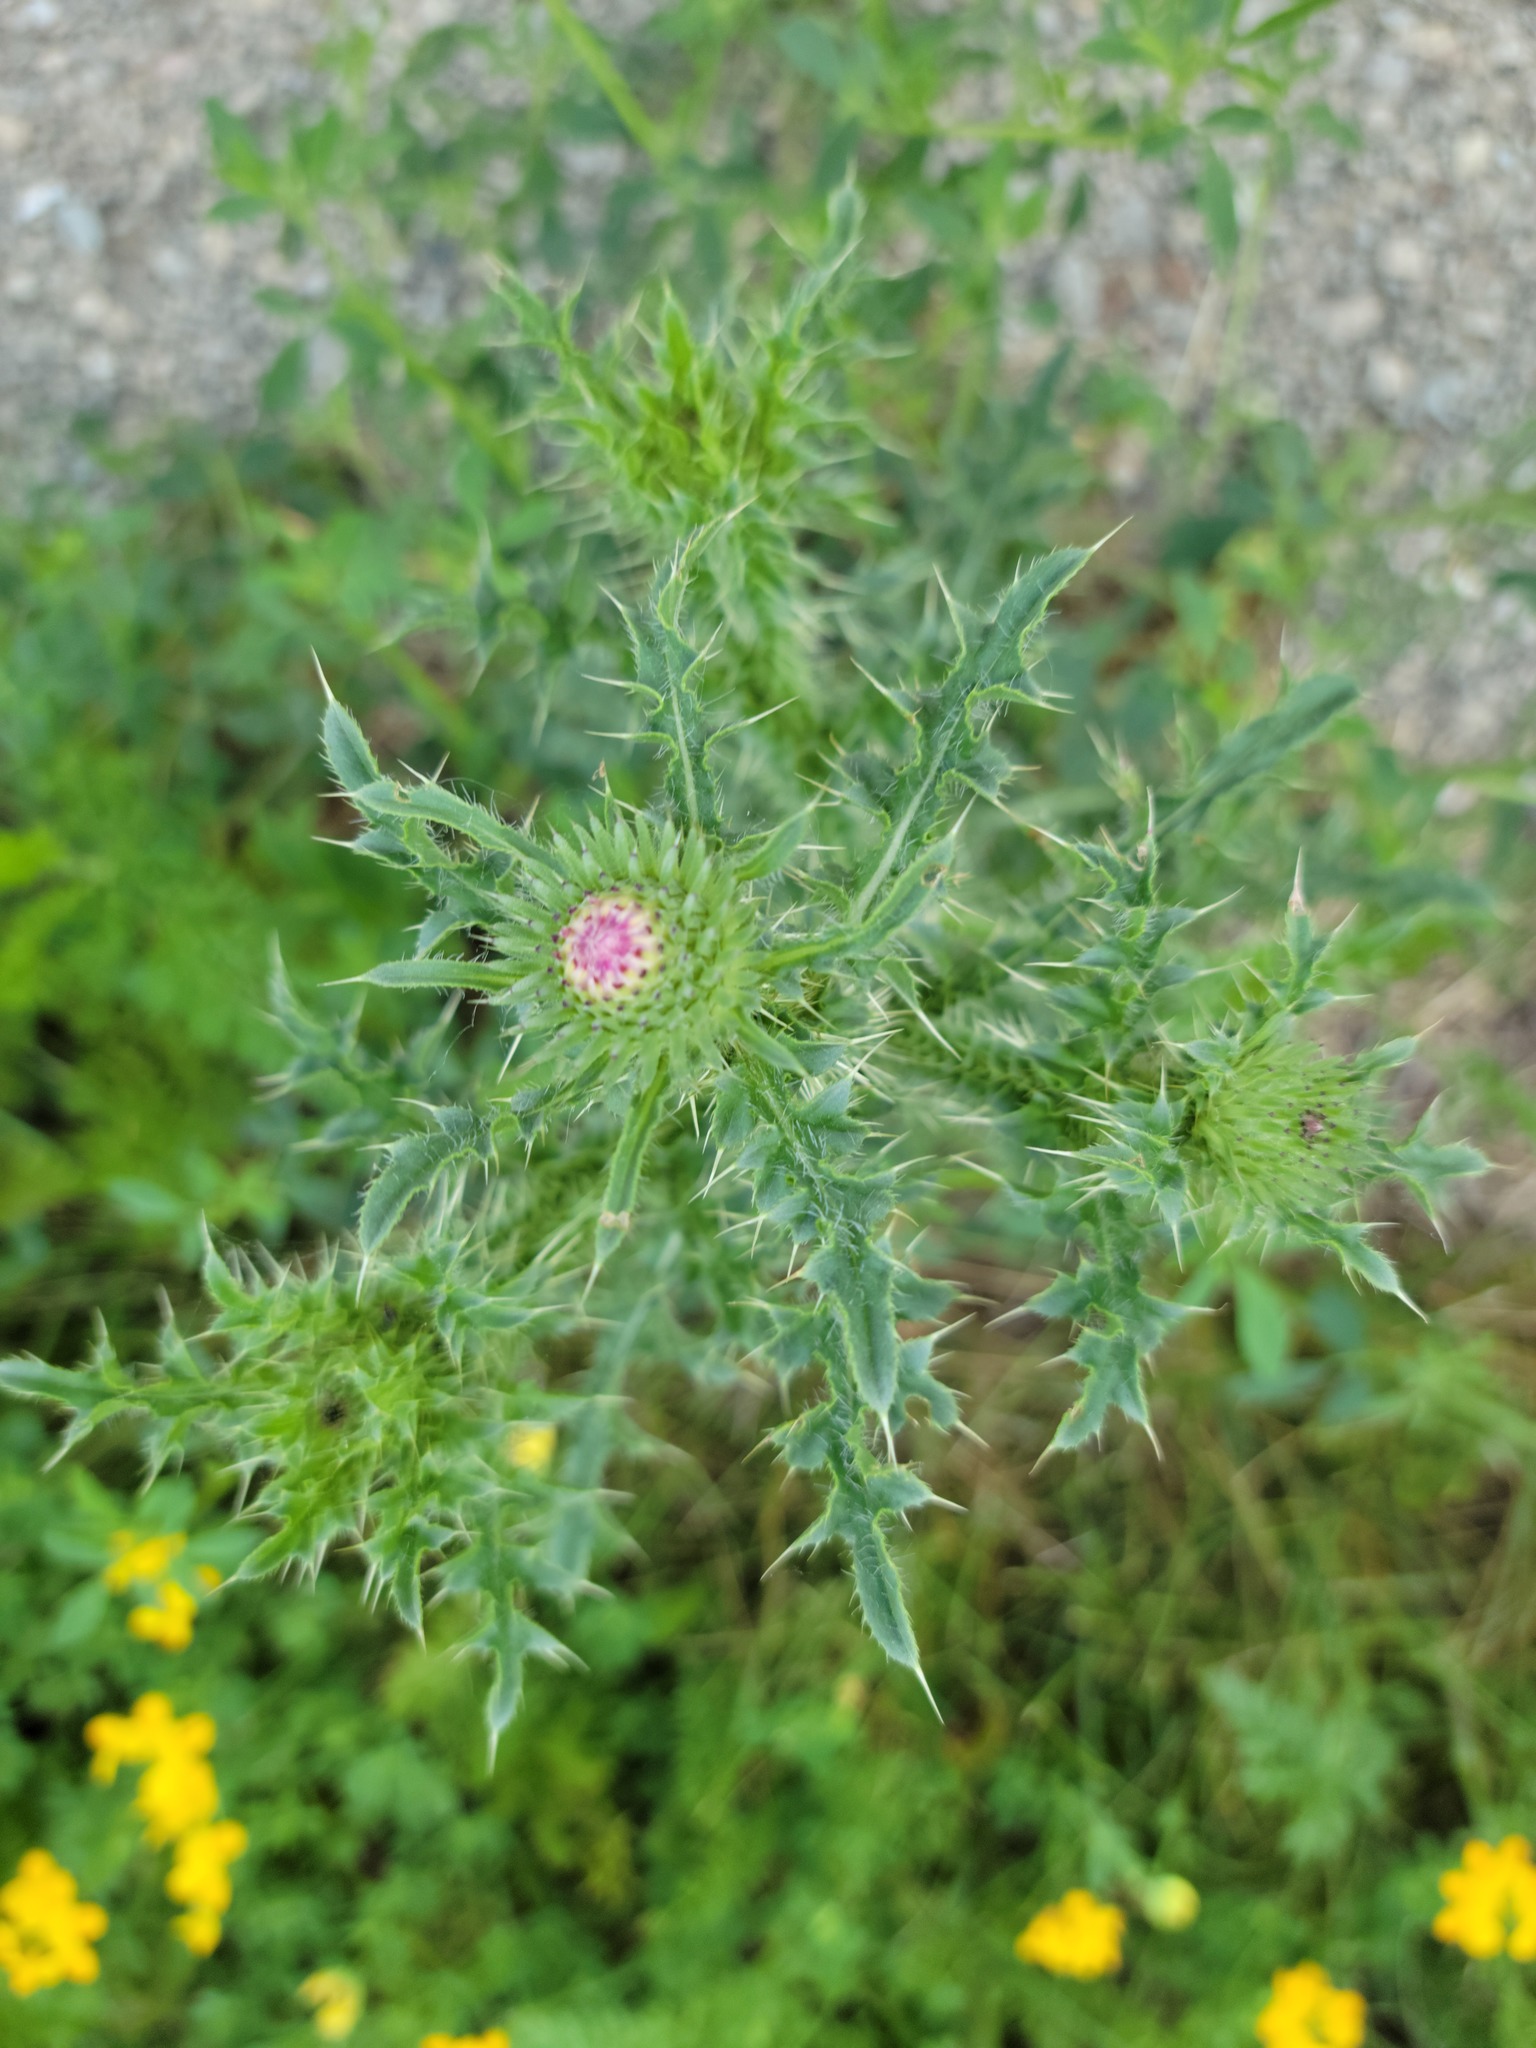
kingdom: Plantae
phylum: Tracheophyta
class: Magnoliopsida
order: Asterales
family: Asteraceae
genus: Carduus
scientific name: Carduus acanthoides
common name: Plumeless thistle
